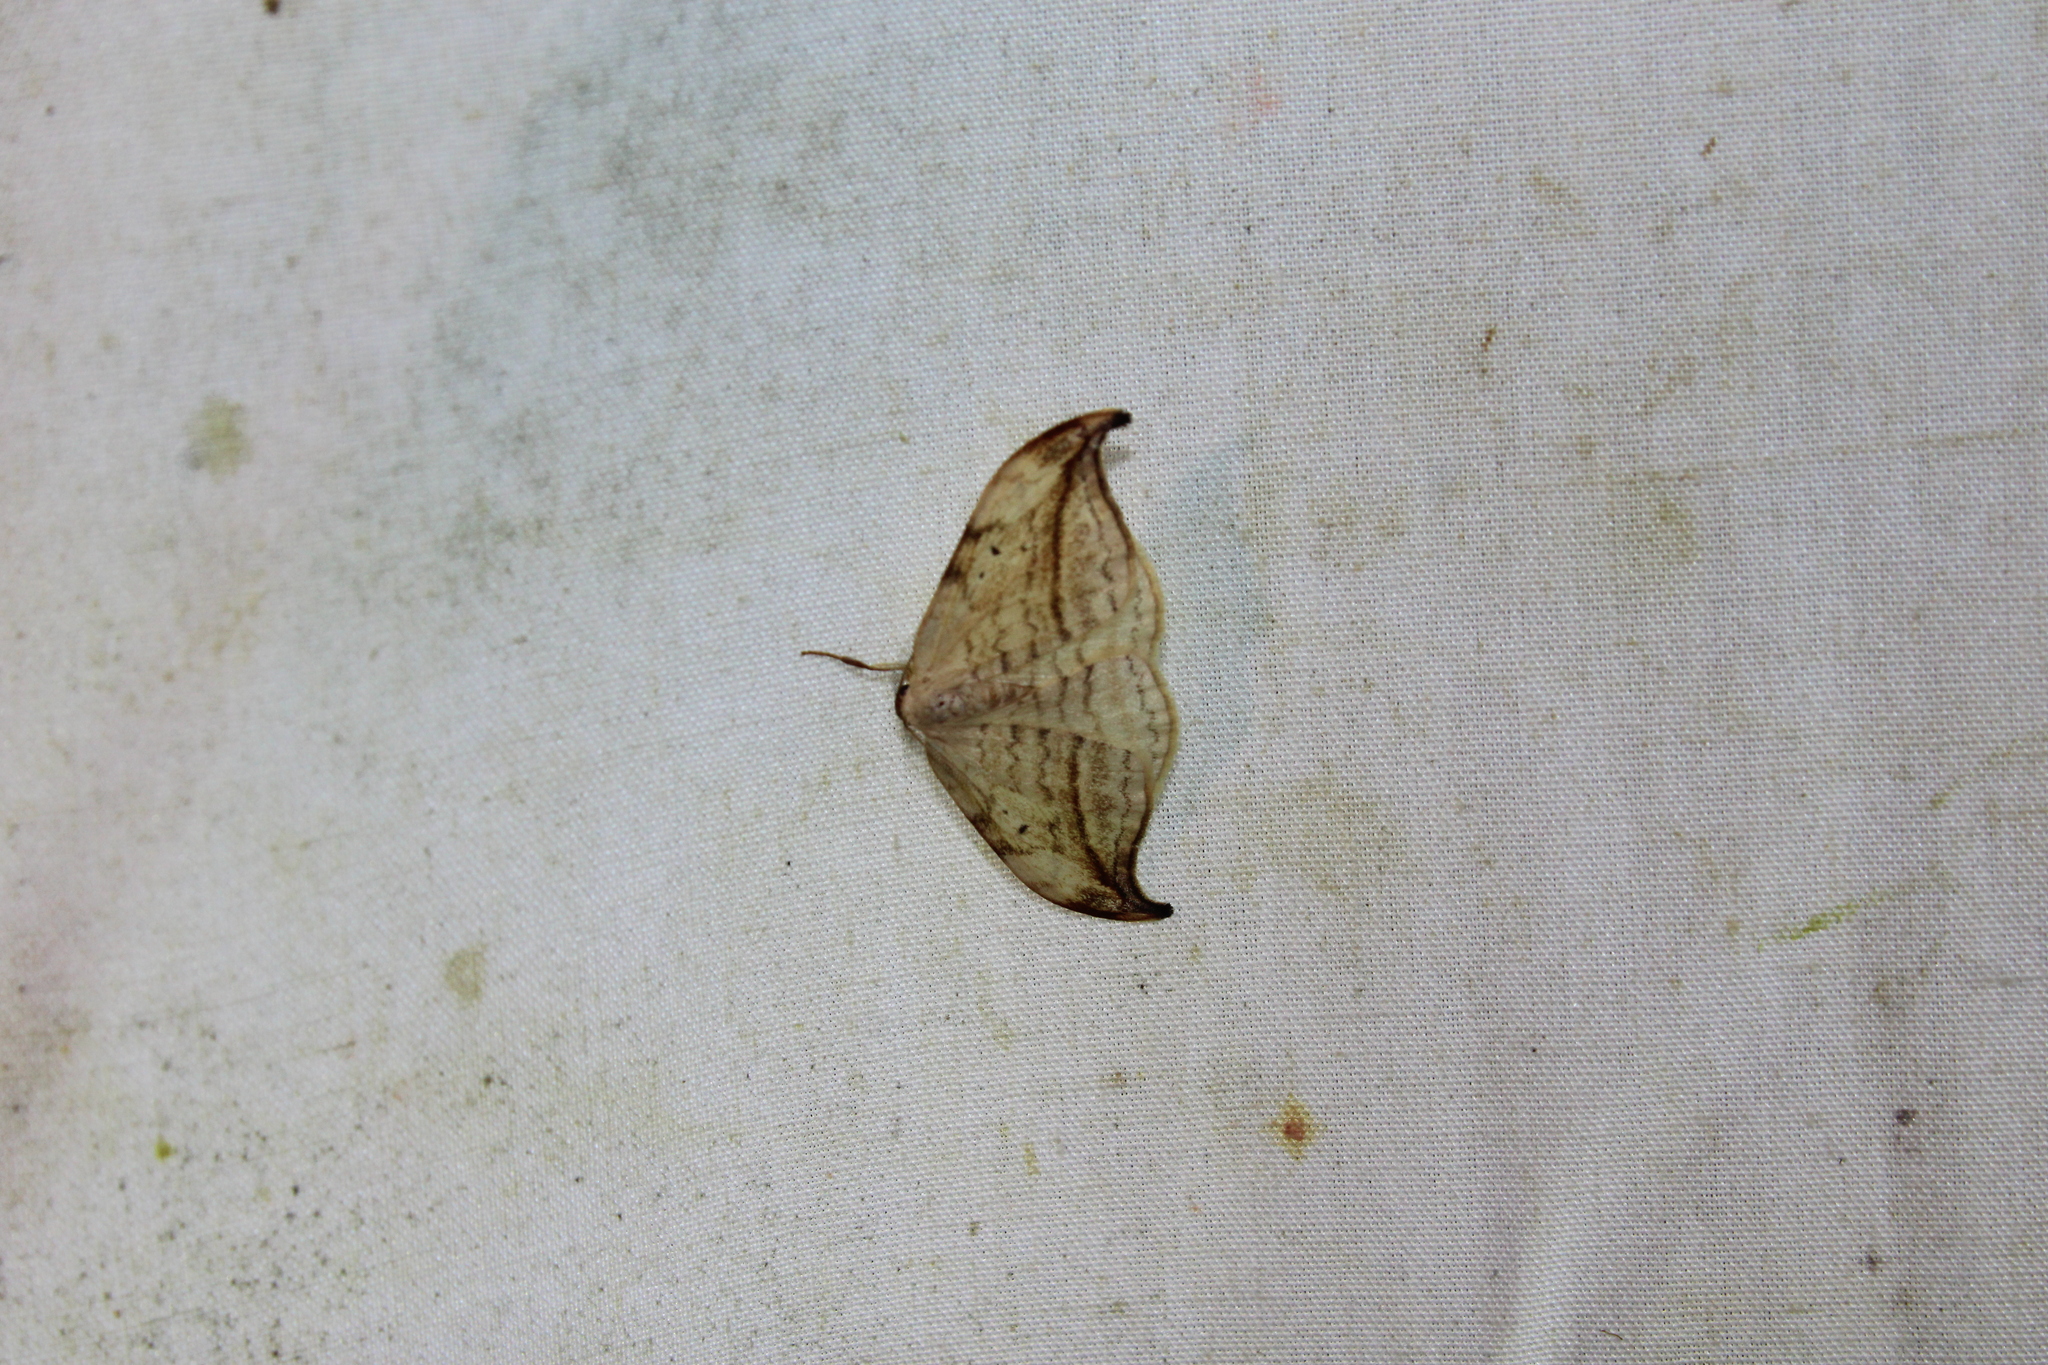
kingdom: Animalia
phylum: Arthropoda
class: Insecta
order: Lepidoptera
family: Drepanidae
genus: Drepana
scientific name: Drepana arcuata
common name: Arched hooktip moth
